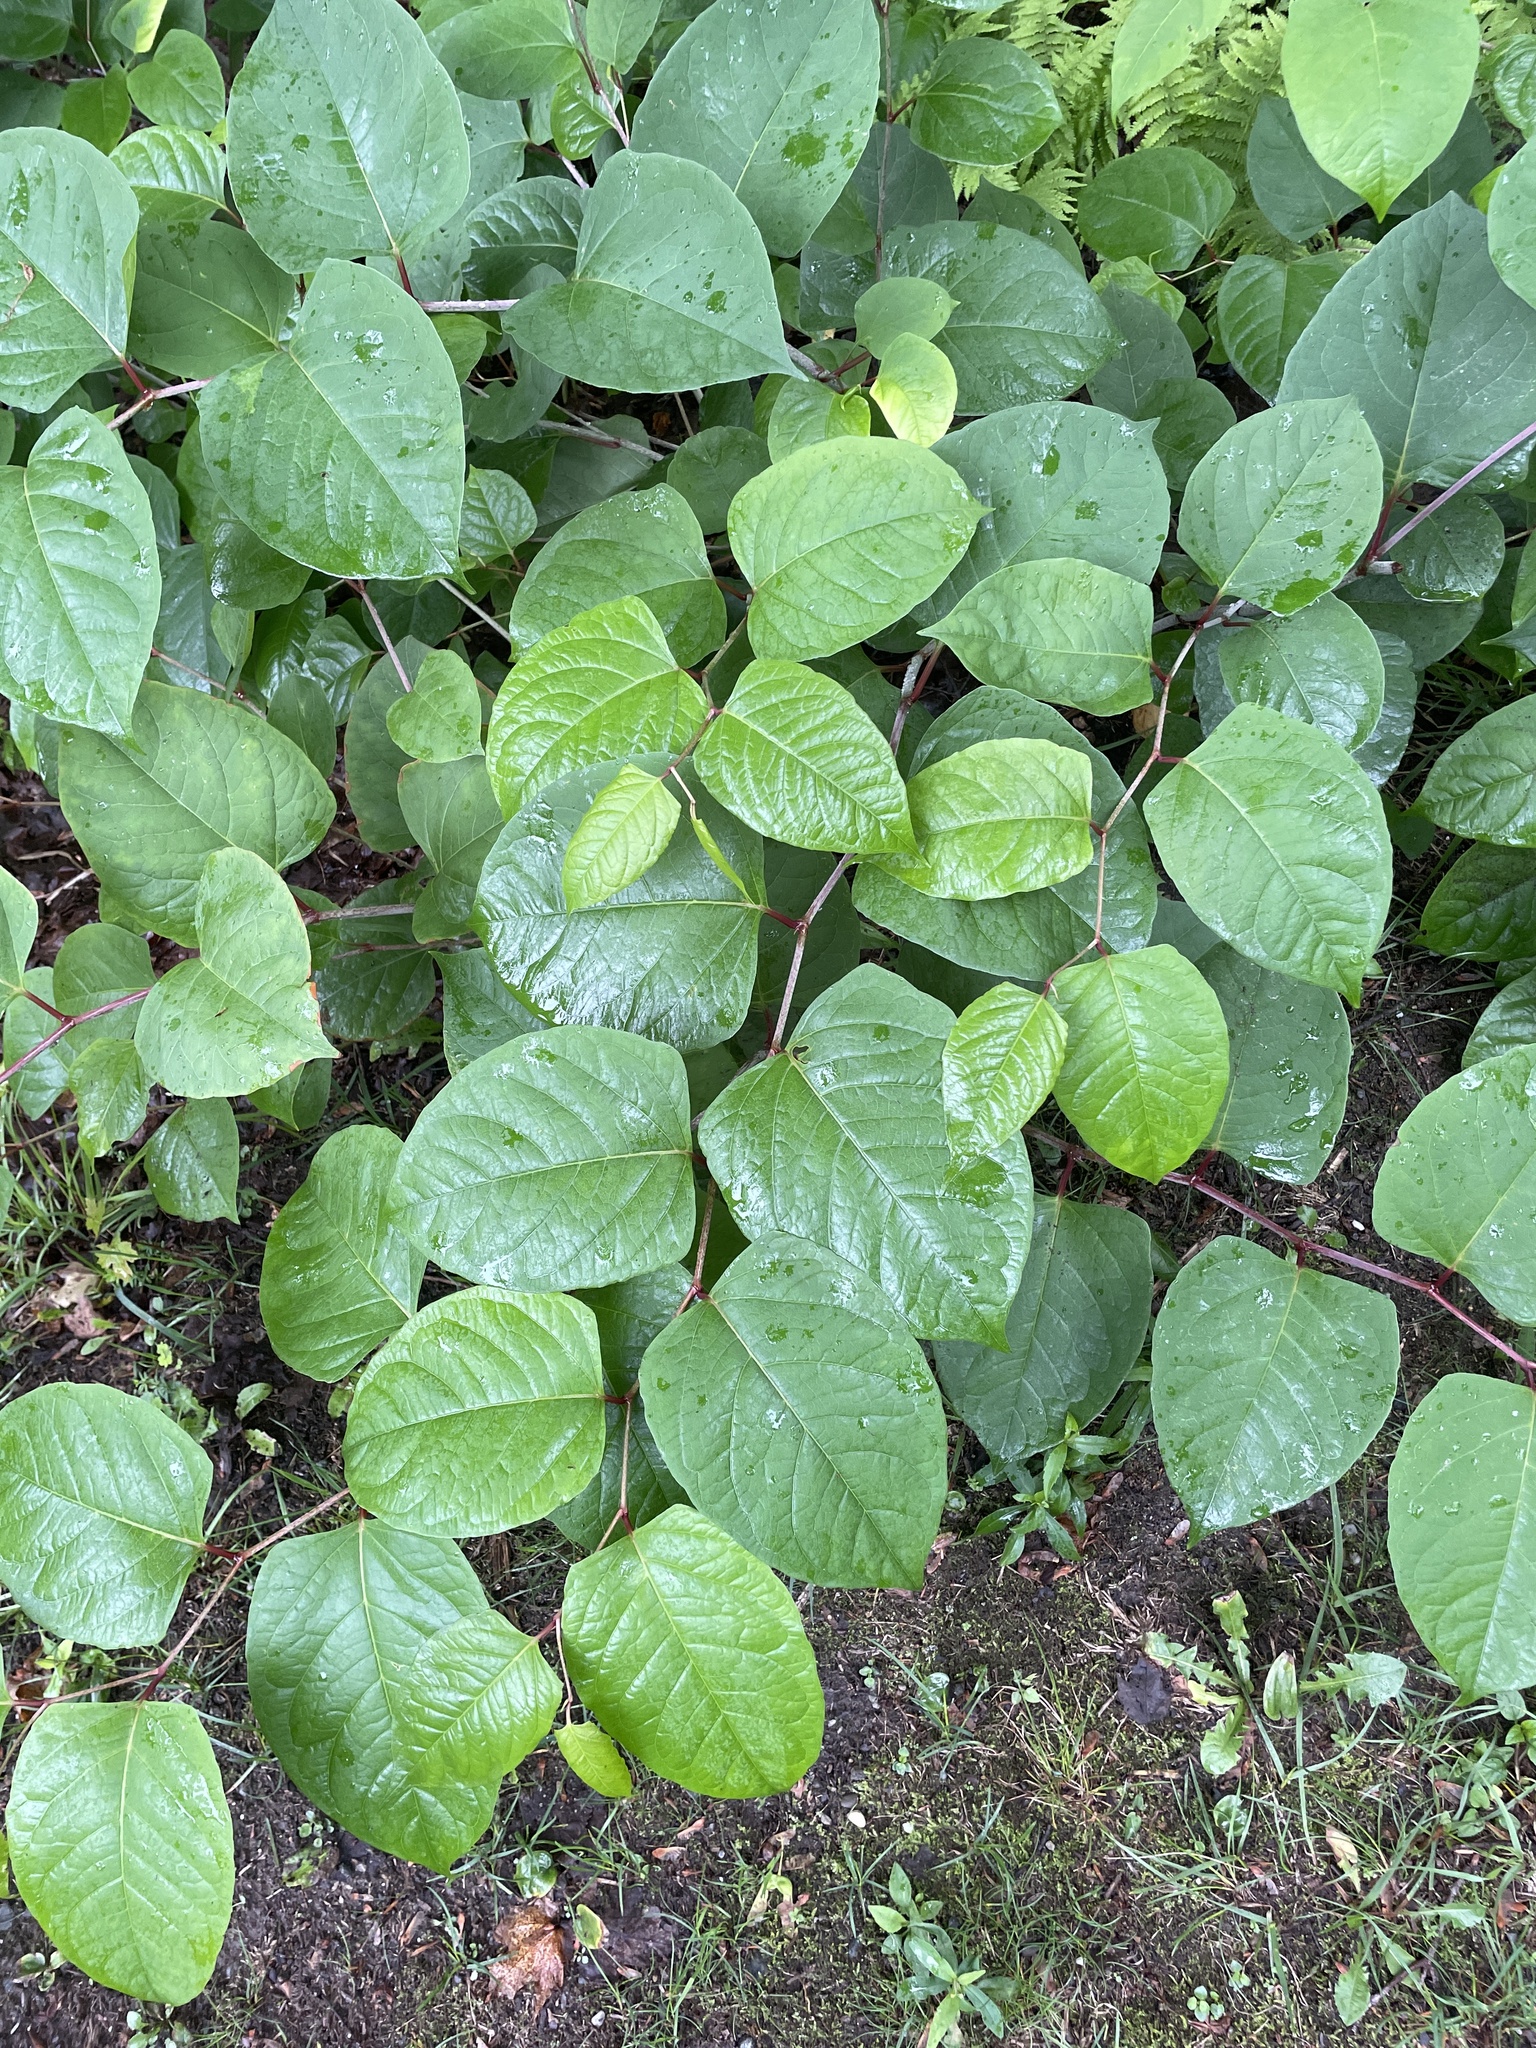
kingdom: Plantae
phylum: Tracheophyta
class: Magnoliopsida
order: Caryophyllales
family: Polygonaceae
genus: Reynoutria
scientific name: Reynoutria japonica
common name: Japanese knotweed
